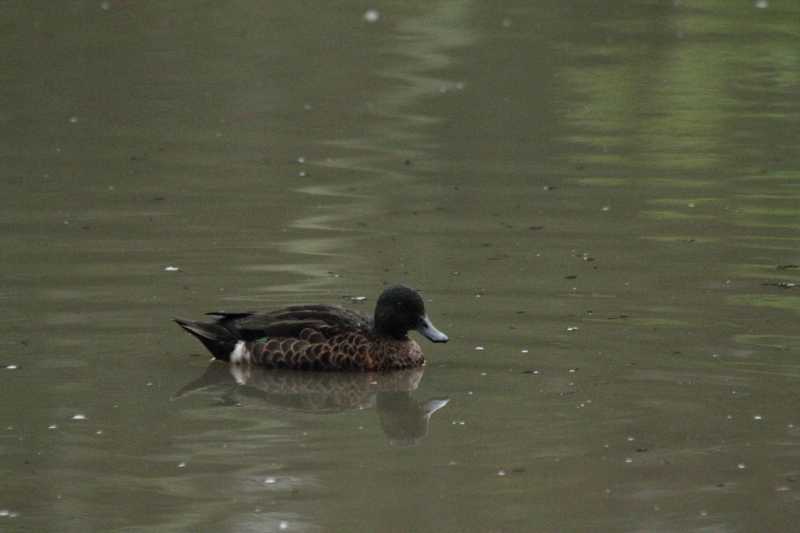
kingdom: Animalia
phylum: Chordata
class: Aves
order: Anseriformes
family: Anatidae
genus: Anas
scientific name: Anas castanea
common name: Chestnut teal
